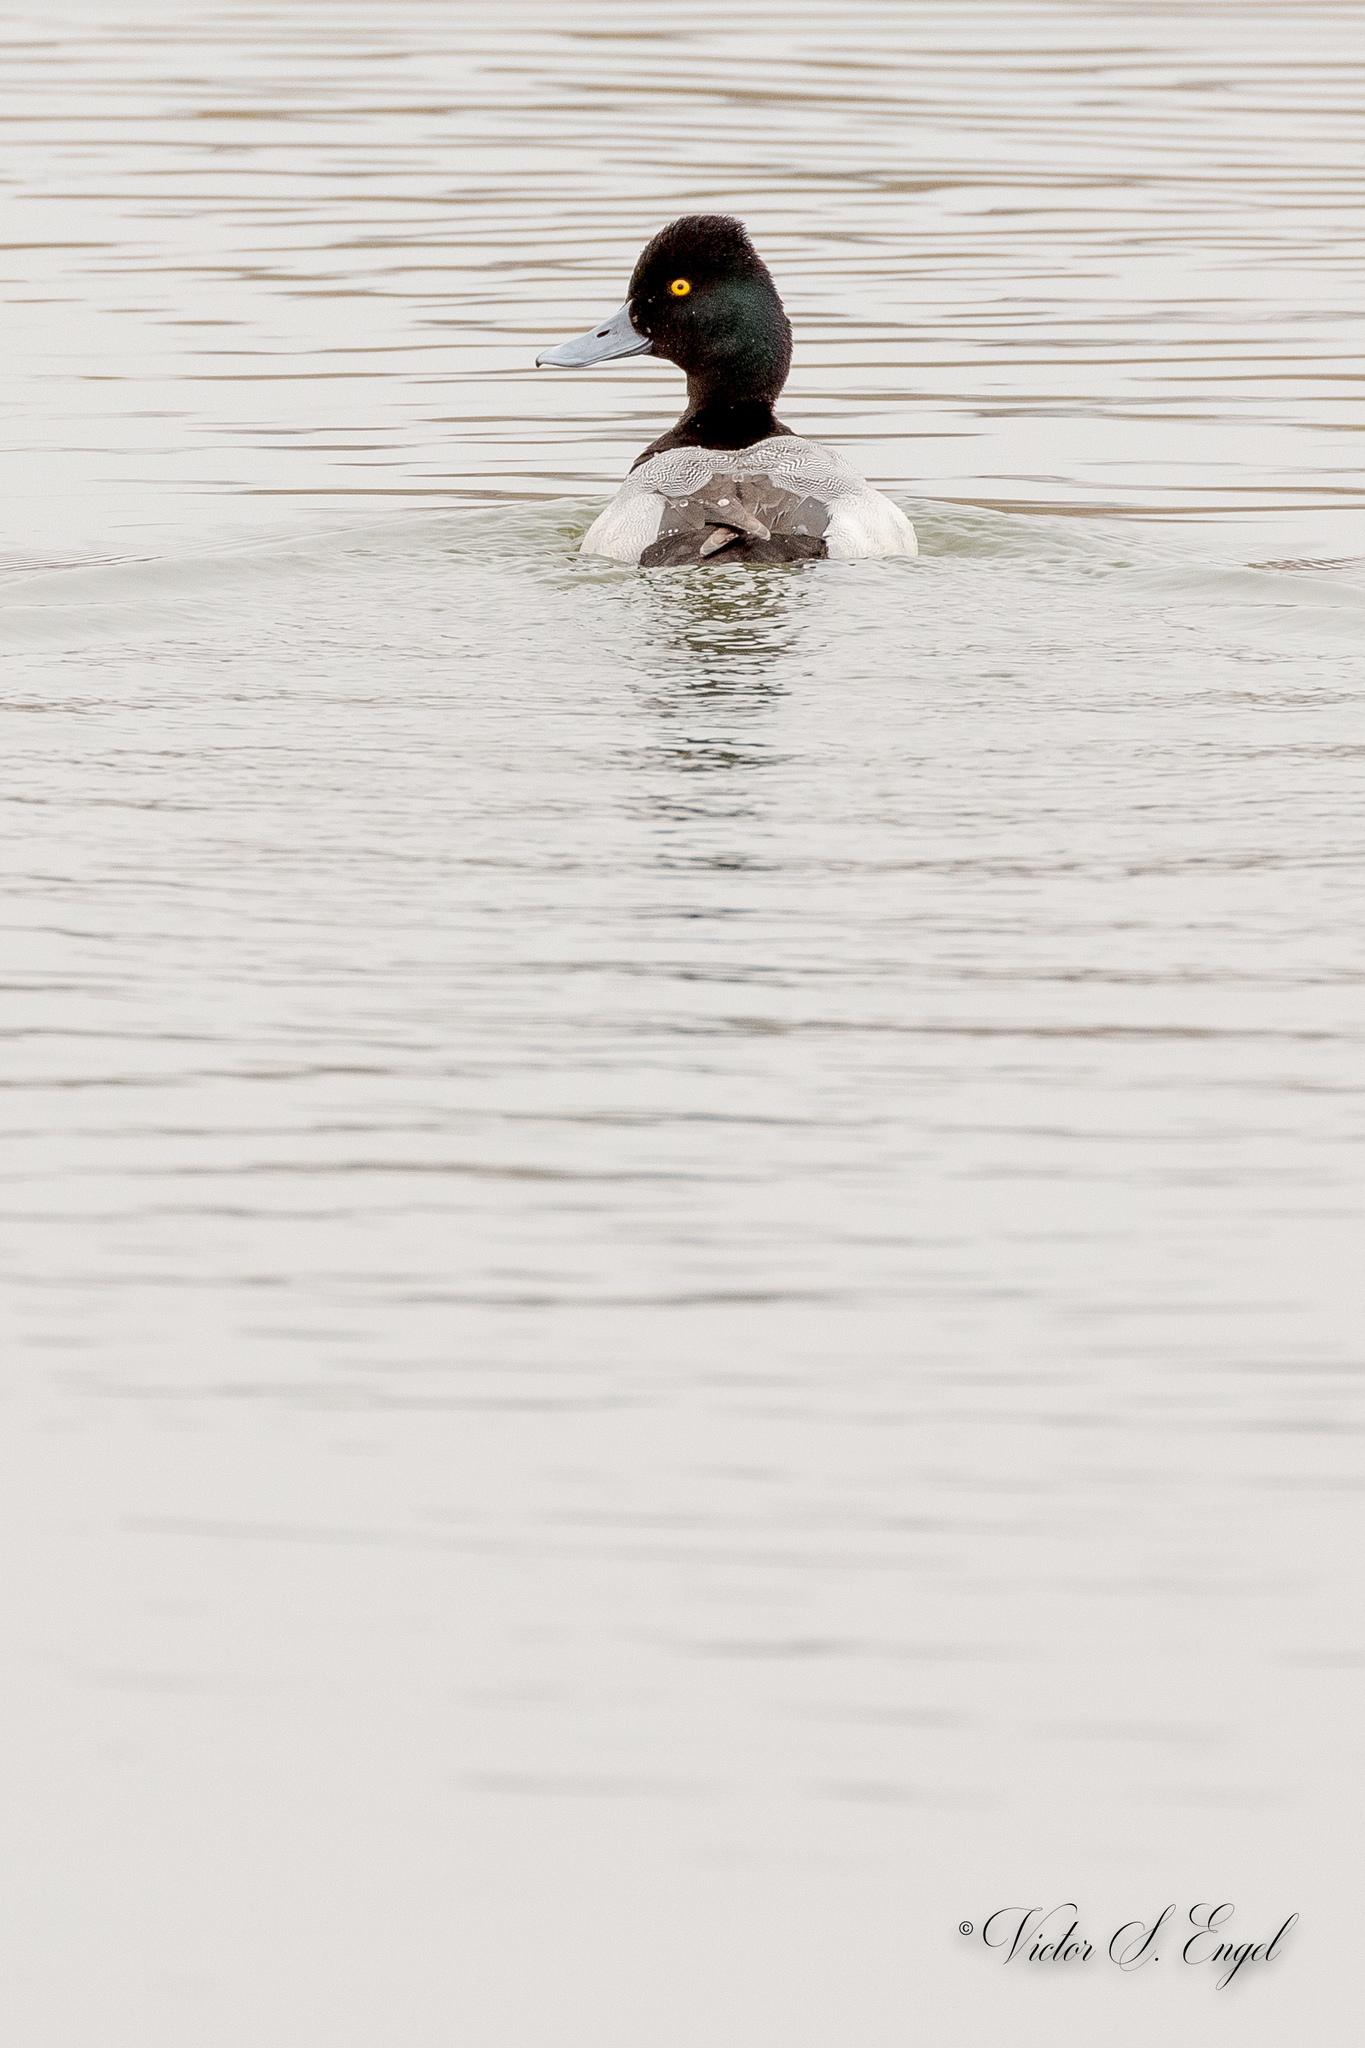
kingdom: Animalia
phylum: Chordata
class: Aves
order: Anseriformes
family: Anatidae
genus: Aythya
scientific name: Aythya affinis
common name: Lesser scaup
